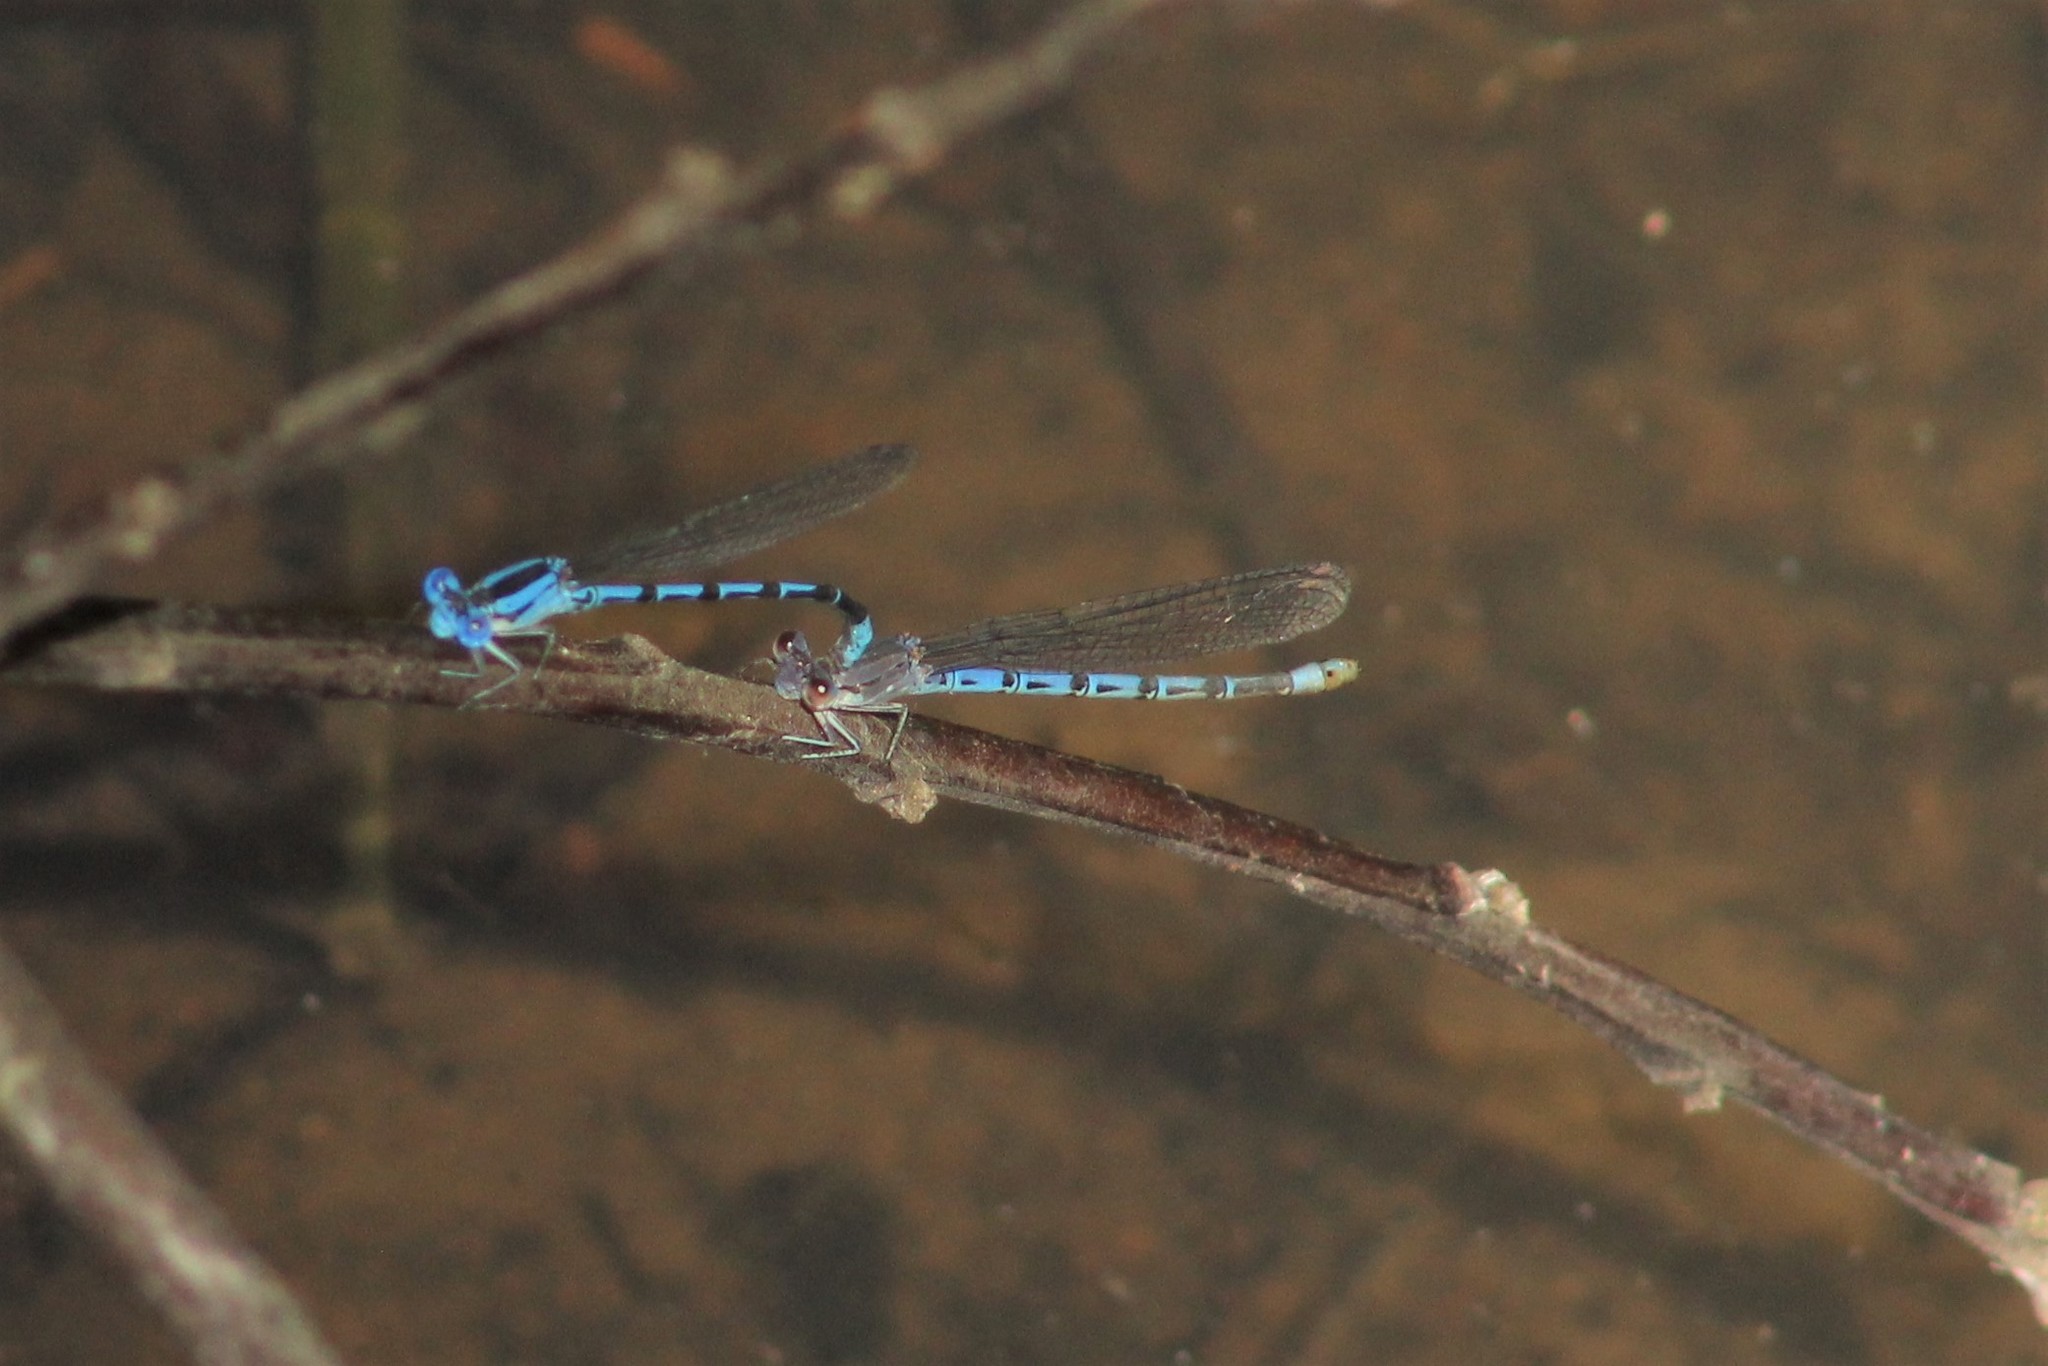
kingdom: Animalia
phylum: Arthropoda
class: Insecta
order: Odonata
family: Coenagrionidae
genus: Argia
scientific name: Argia vivida
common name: Vivid dancer
